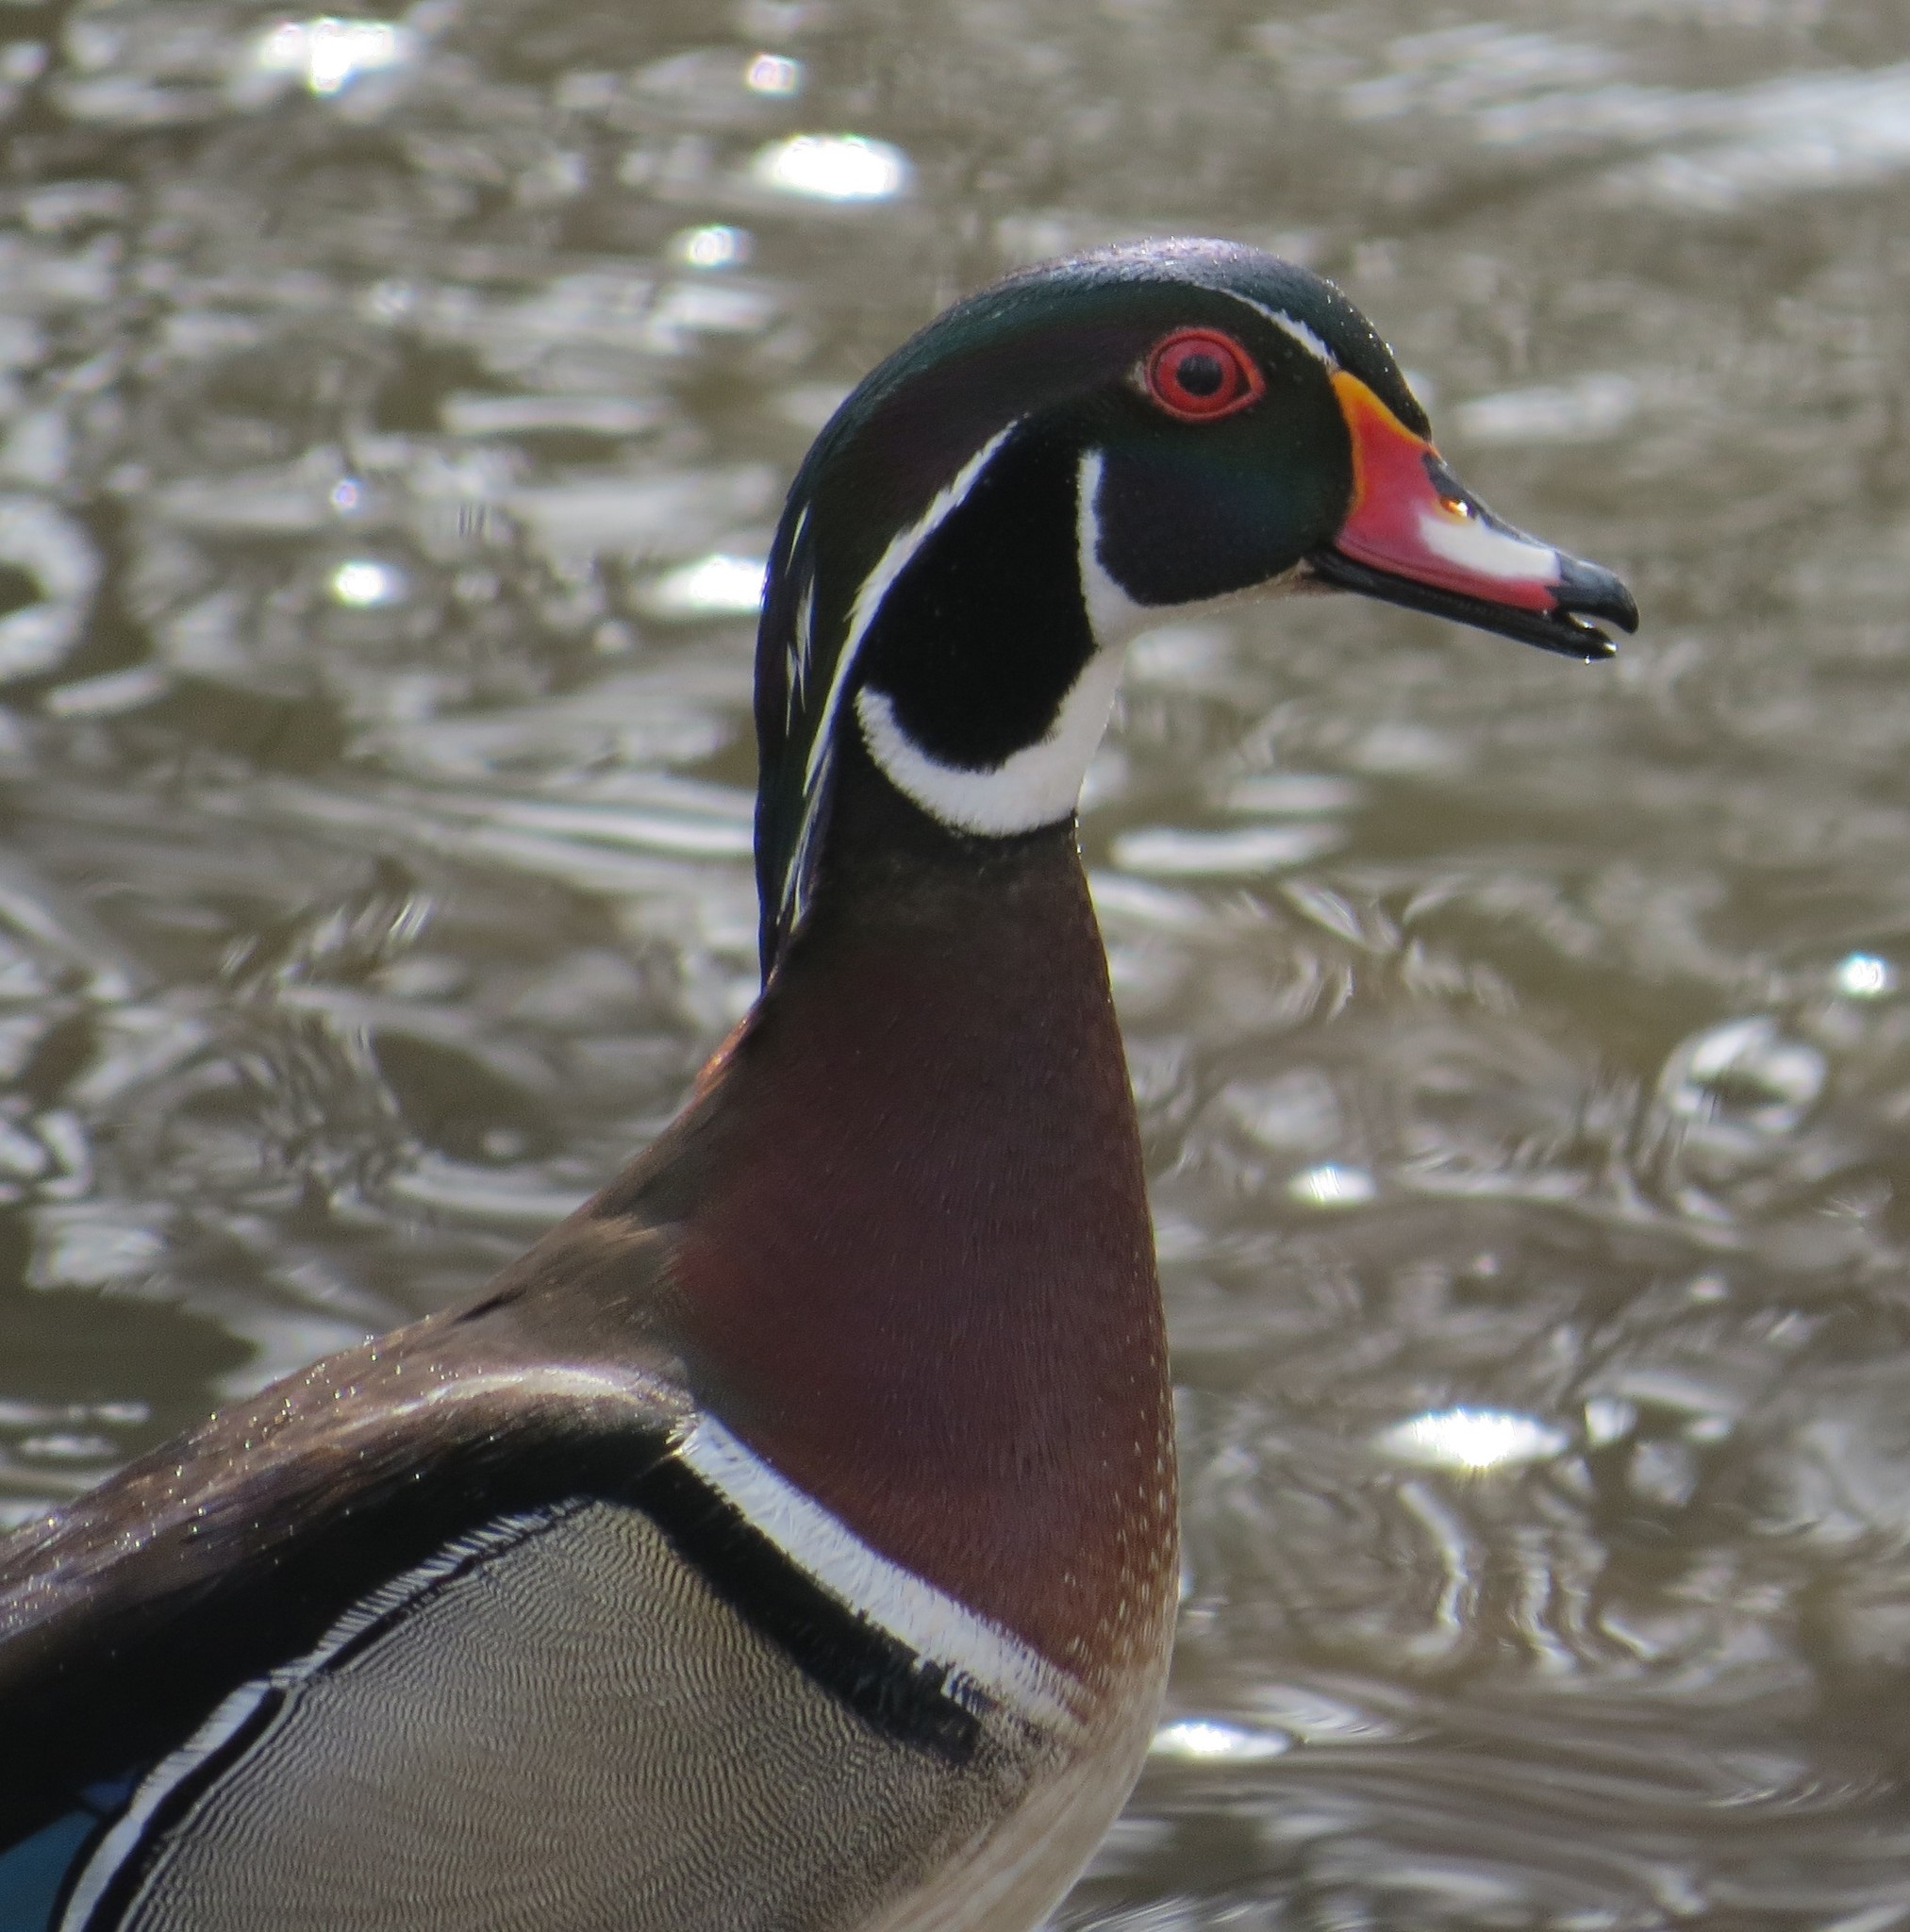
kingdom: Animalia
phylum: Chordata
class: Aves
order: Anseriformes
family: Anatidae
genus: Aix
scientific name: Aix sponsa
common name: Wood duck
